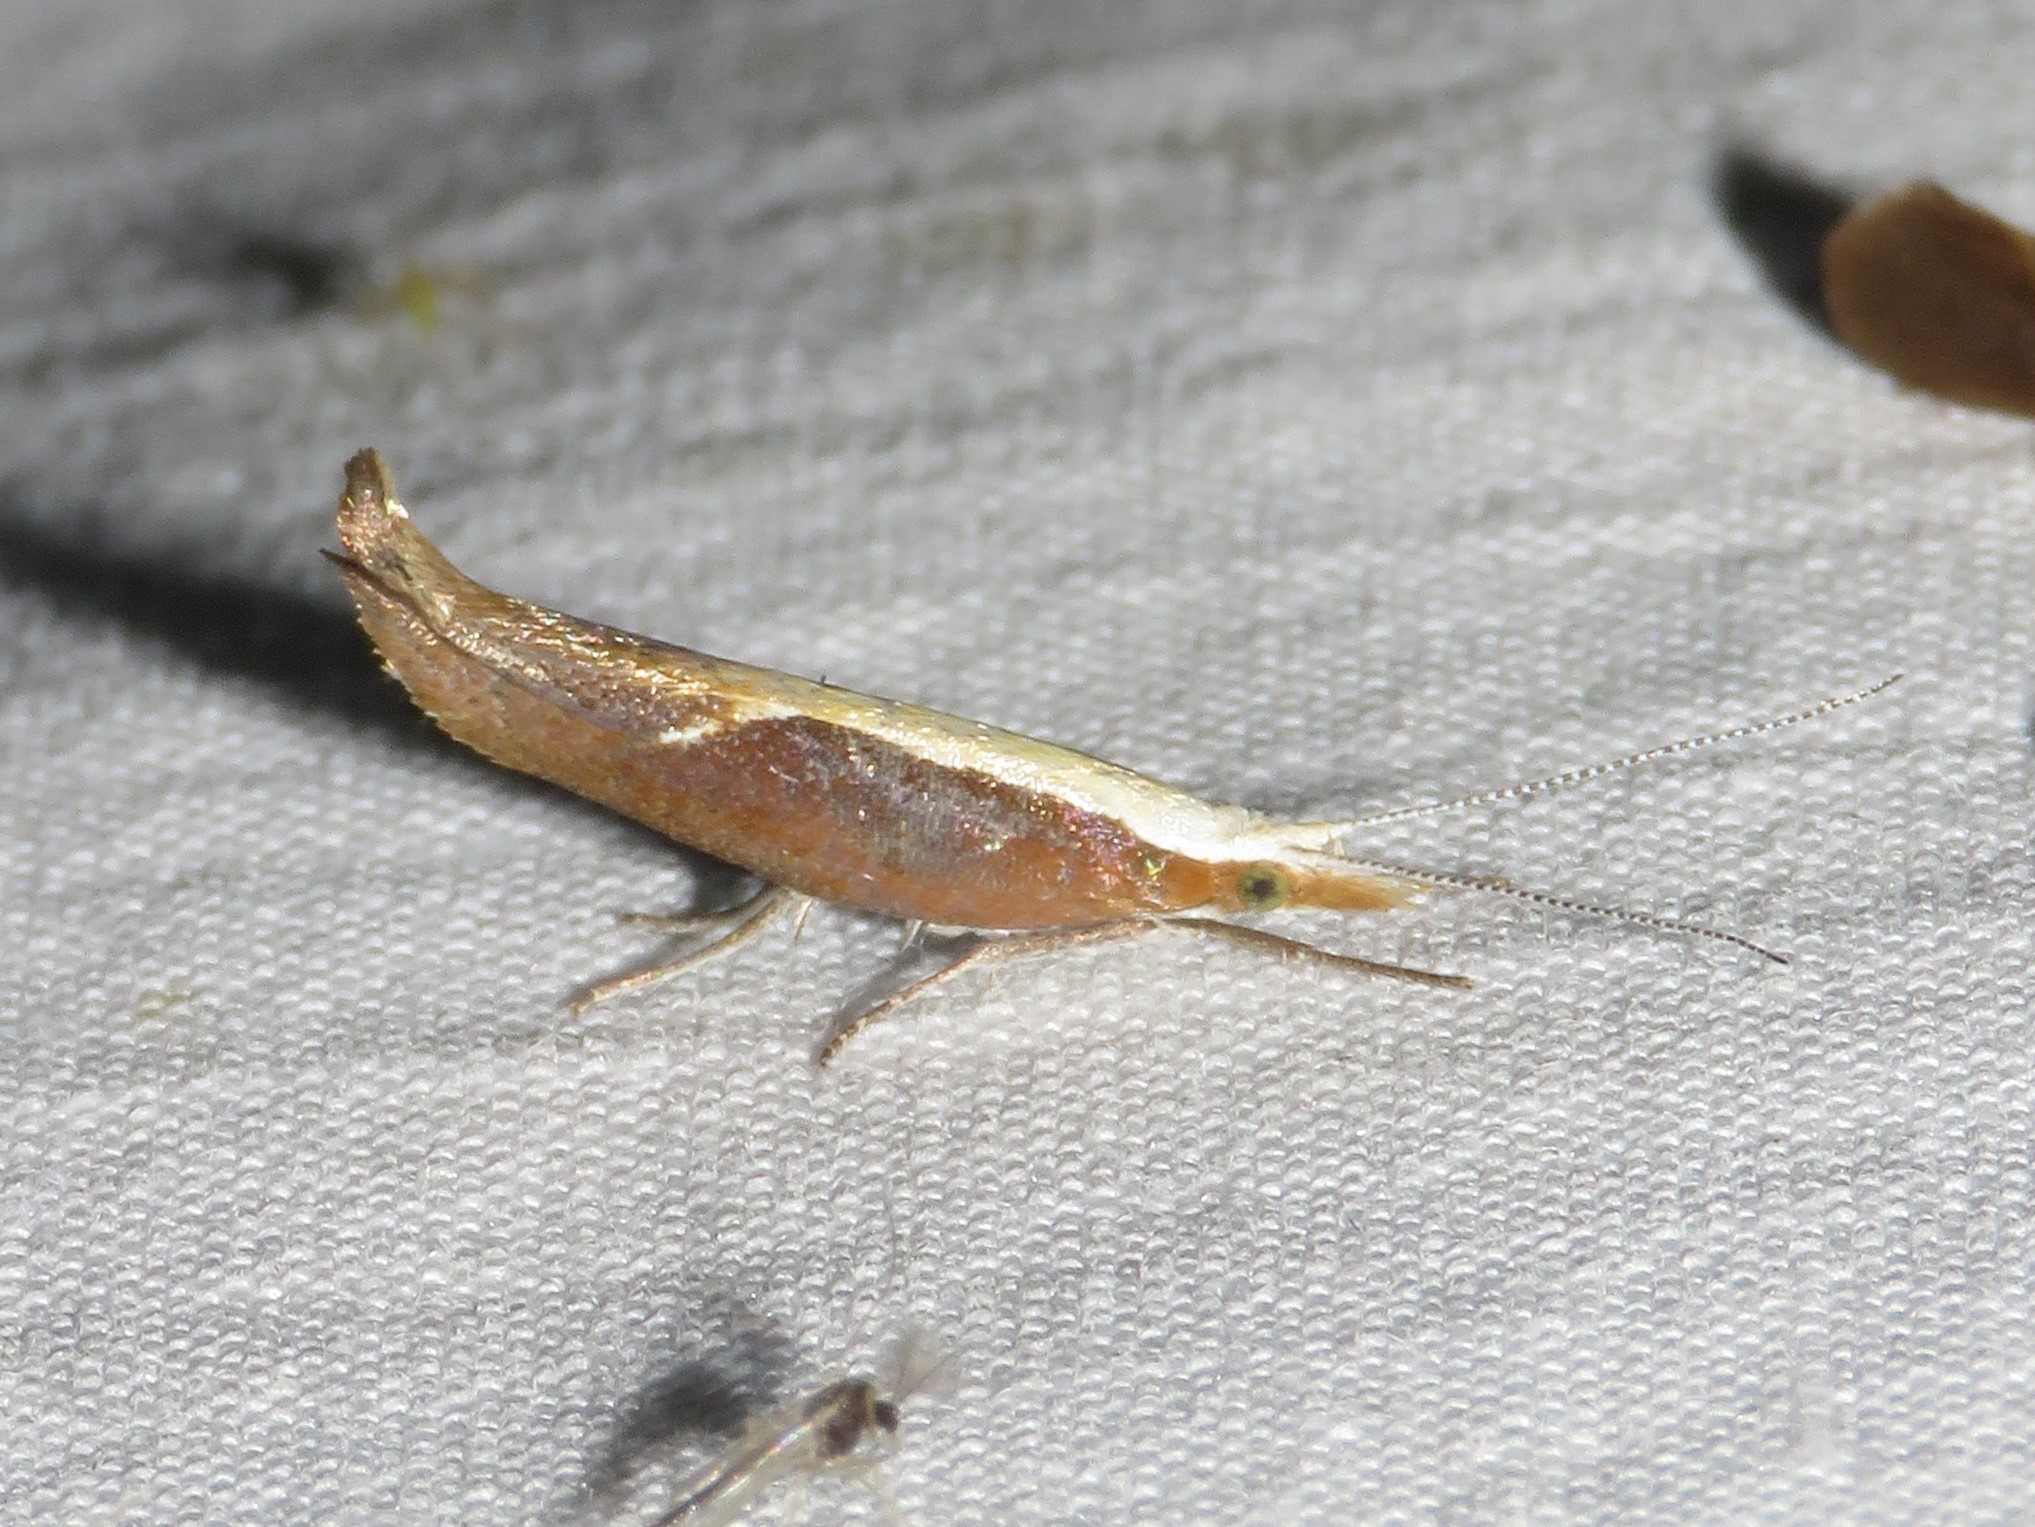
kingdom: Animalia
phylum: Arthropoda
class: Insecta
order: Lepidoptera
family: Ypsolophidae
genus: Ypsolopha
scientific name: Ypsolopha dentella
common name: Honeysuckle moth
